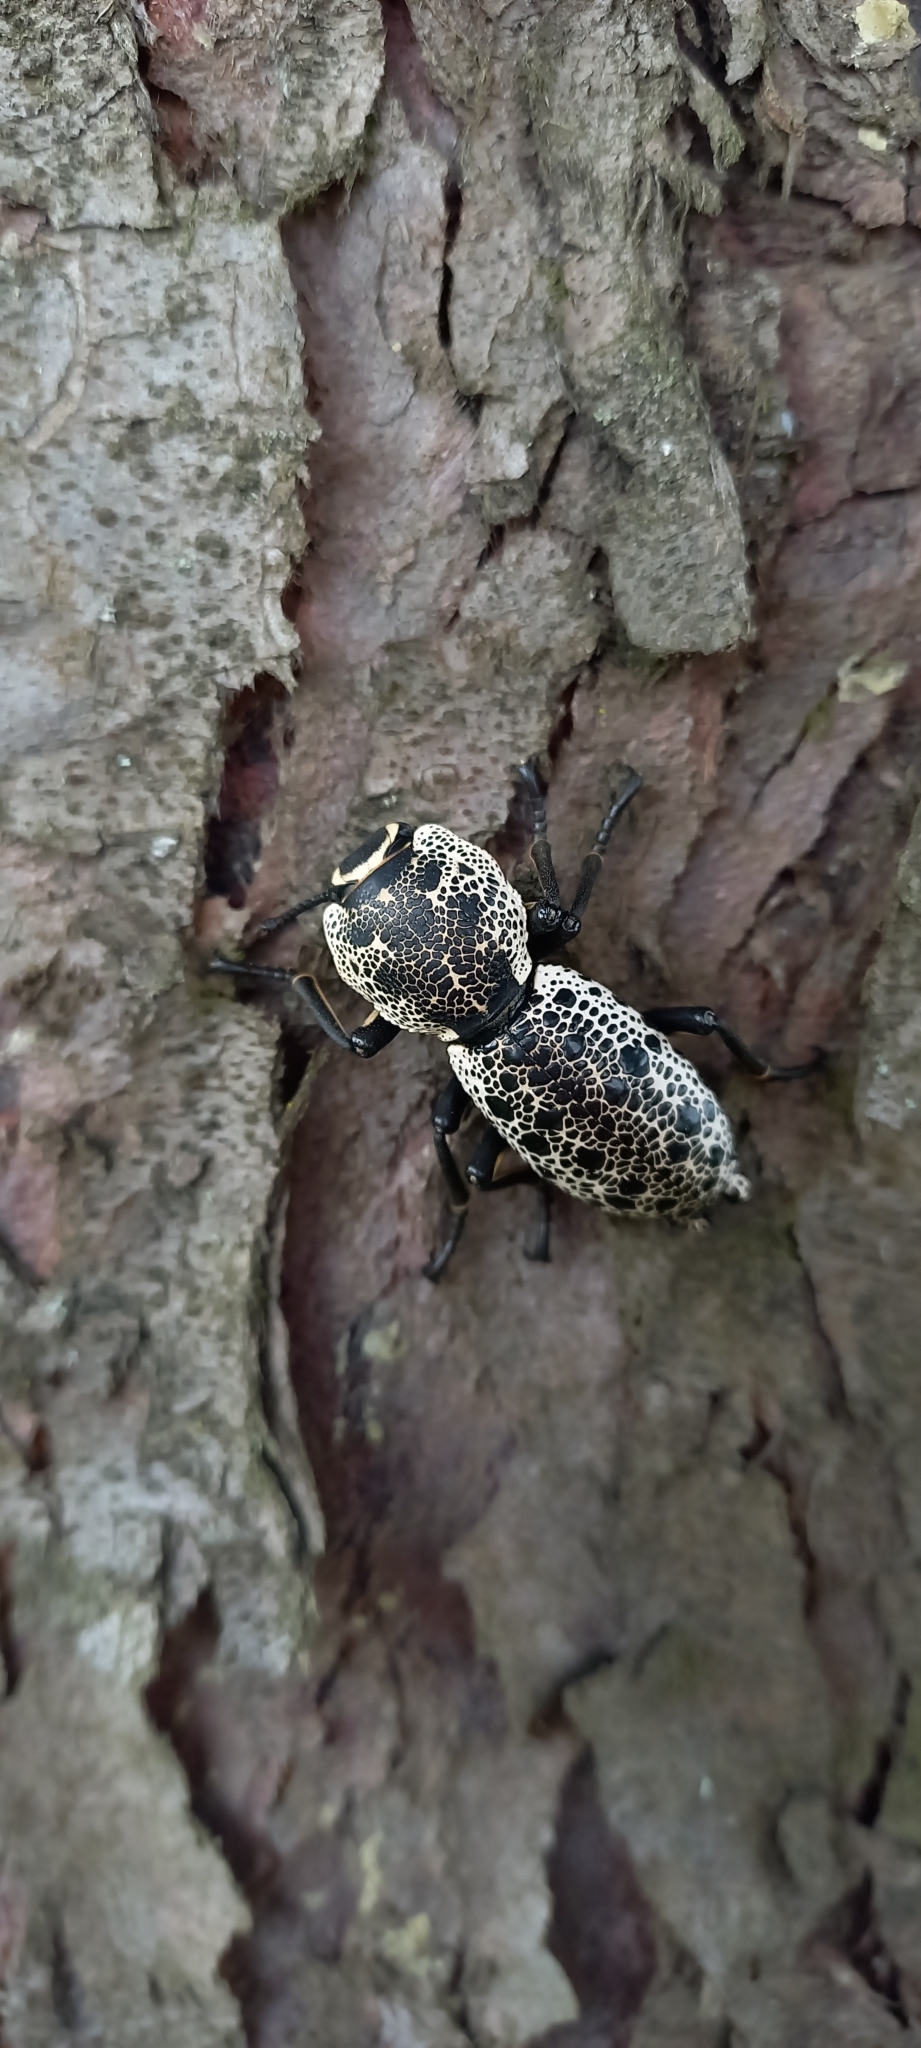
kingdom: Animalia
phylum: Arthropoda
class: Insecta
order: Coleoptera
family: Zopheridae
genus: Zopherus
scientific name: Zopherus
